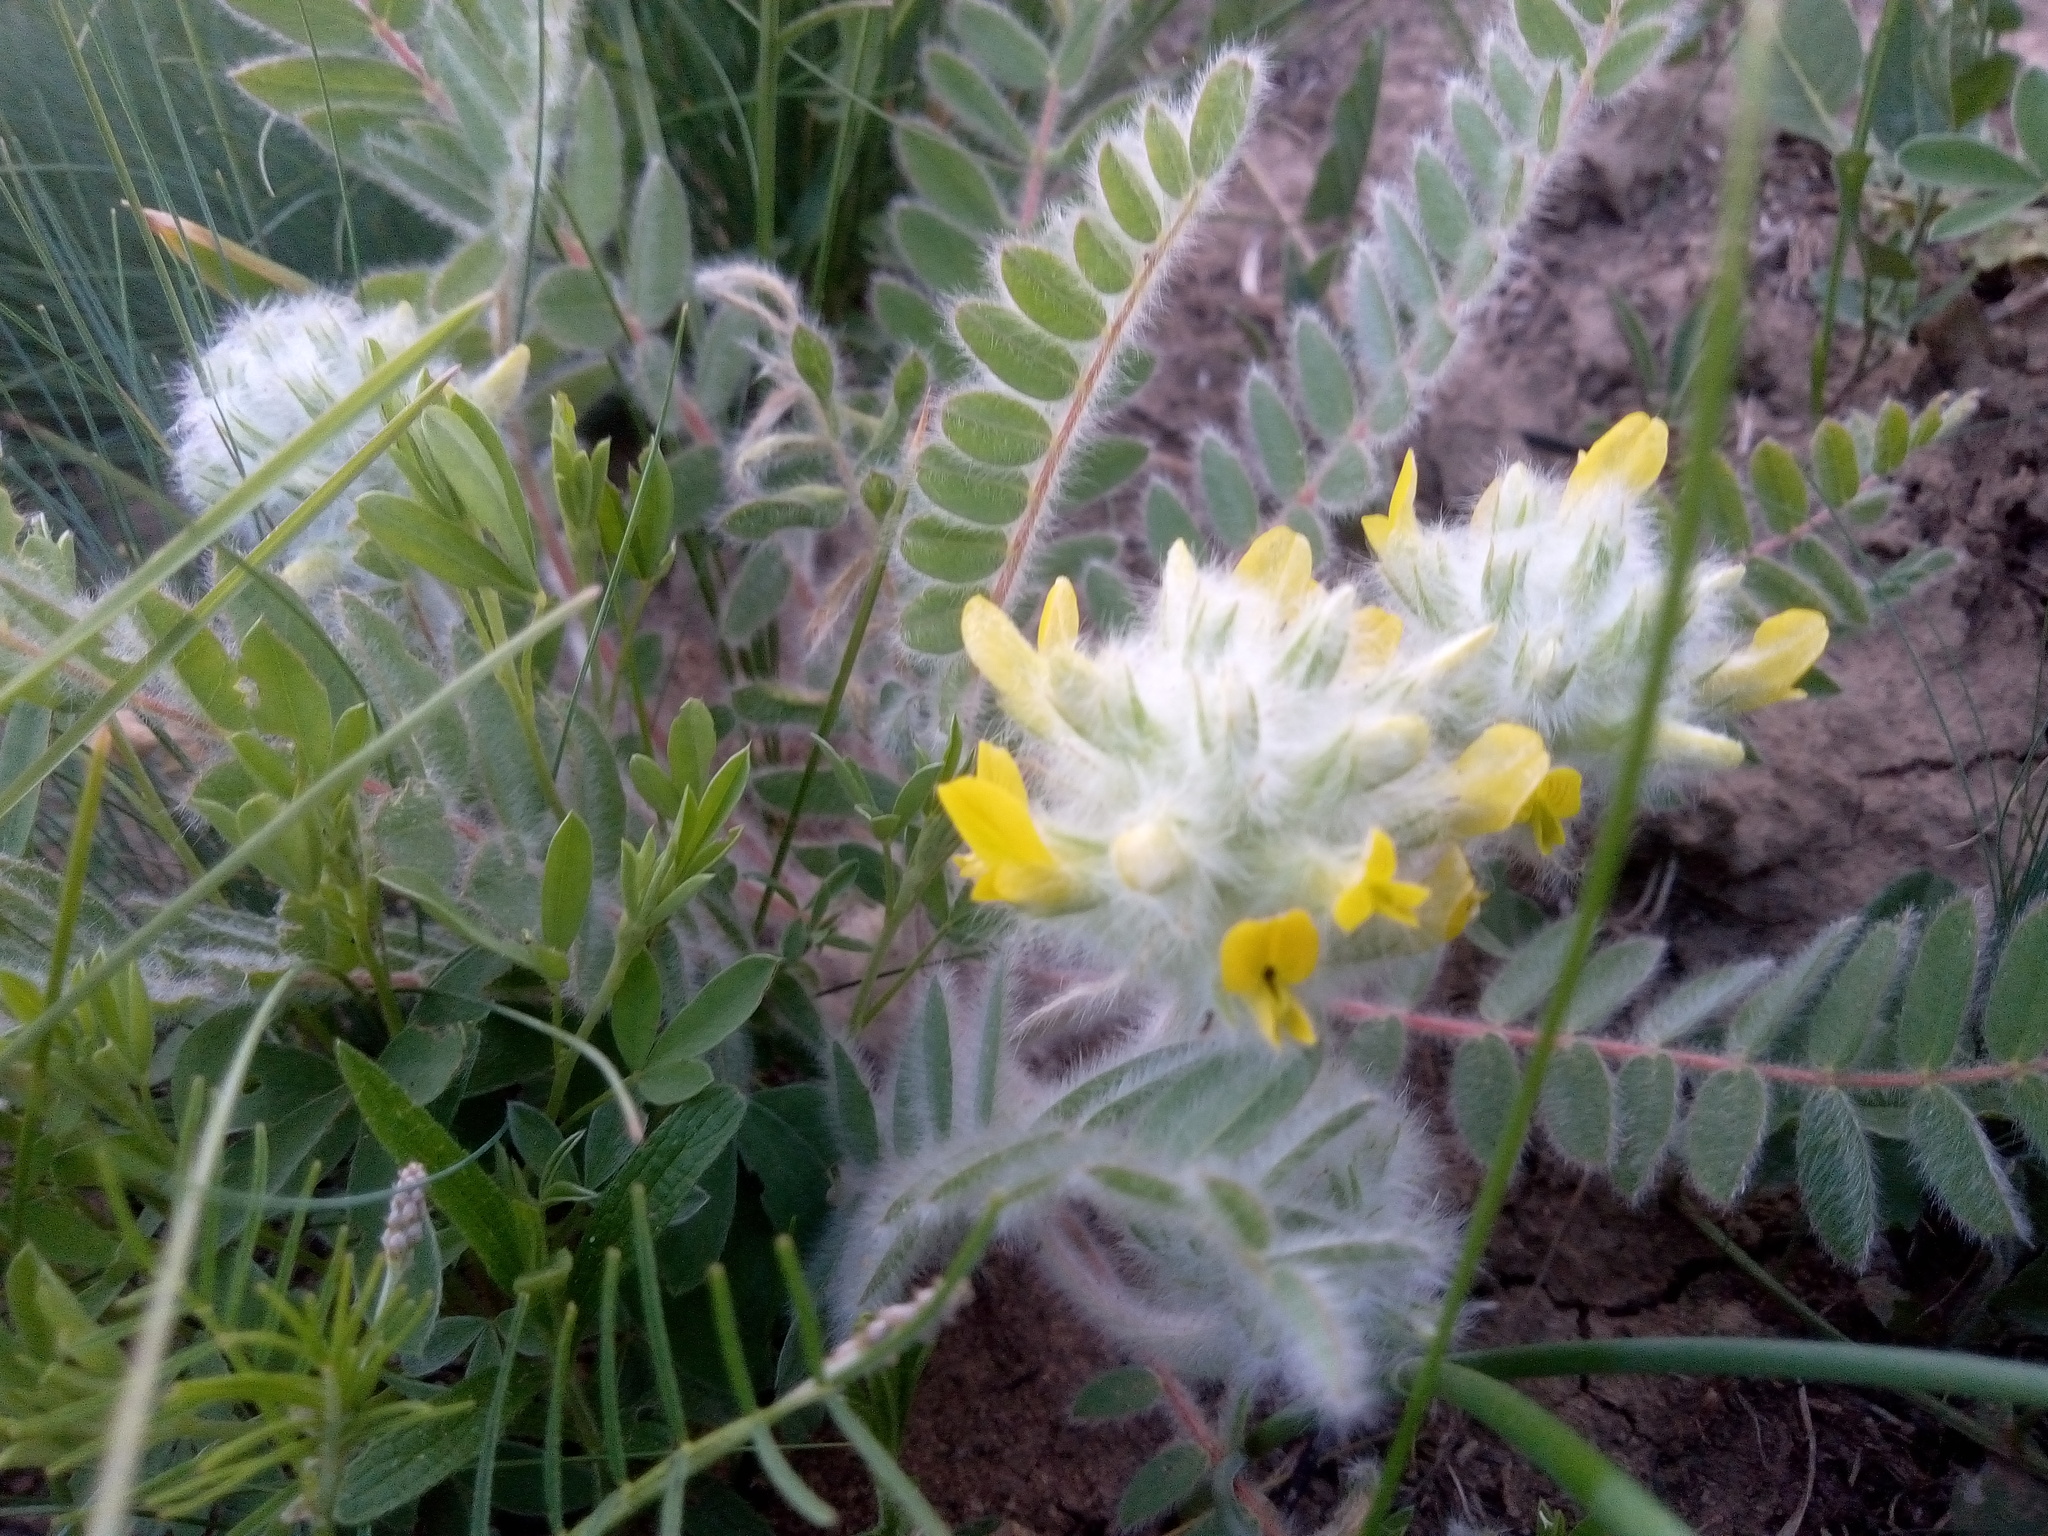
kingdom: Plantae
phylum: Tracheophyta
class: Magnoliopsida
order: Fabales
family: Fabaceae
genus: Astragalus
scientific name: Astragalus dasyanthus
